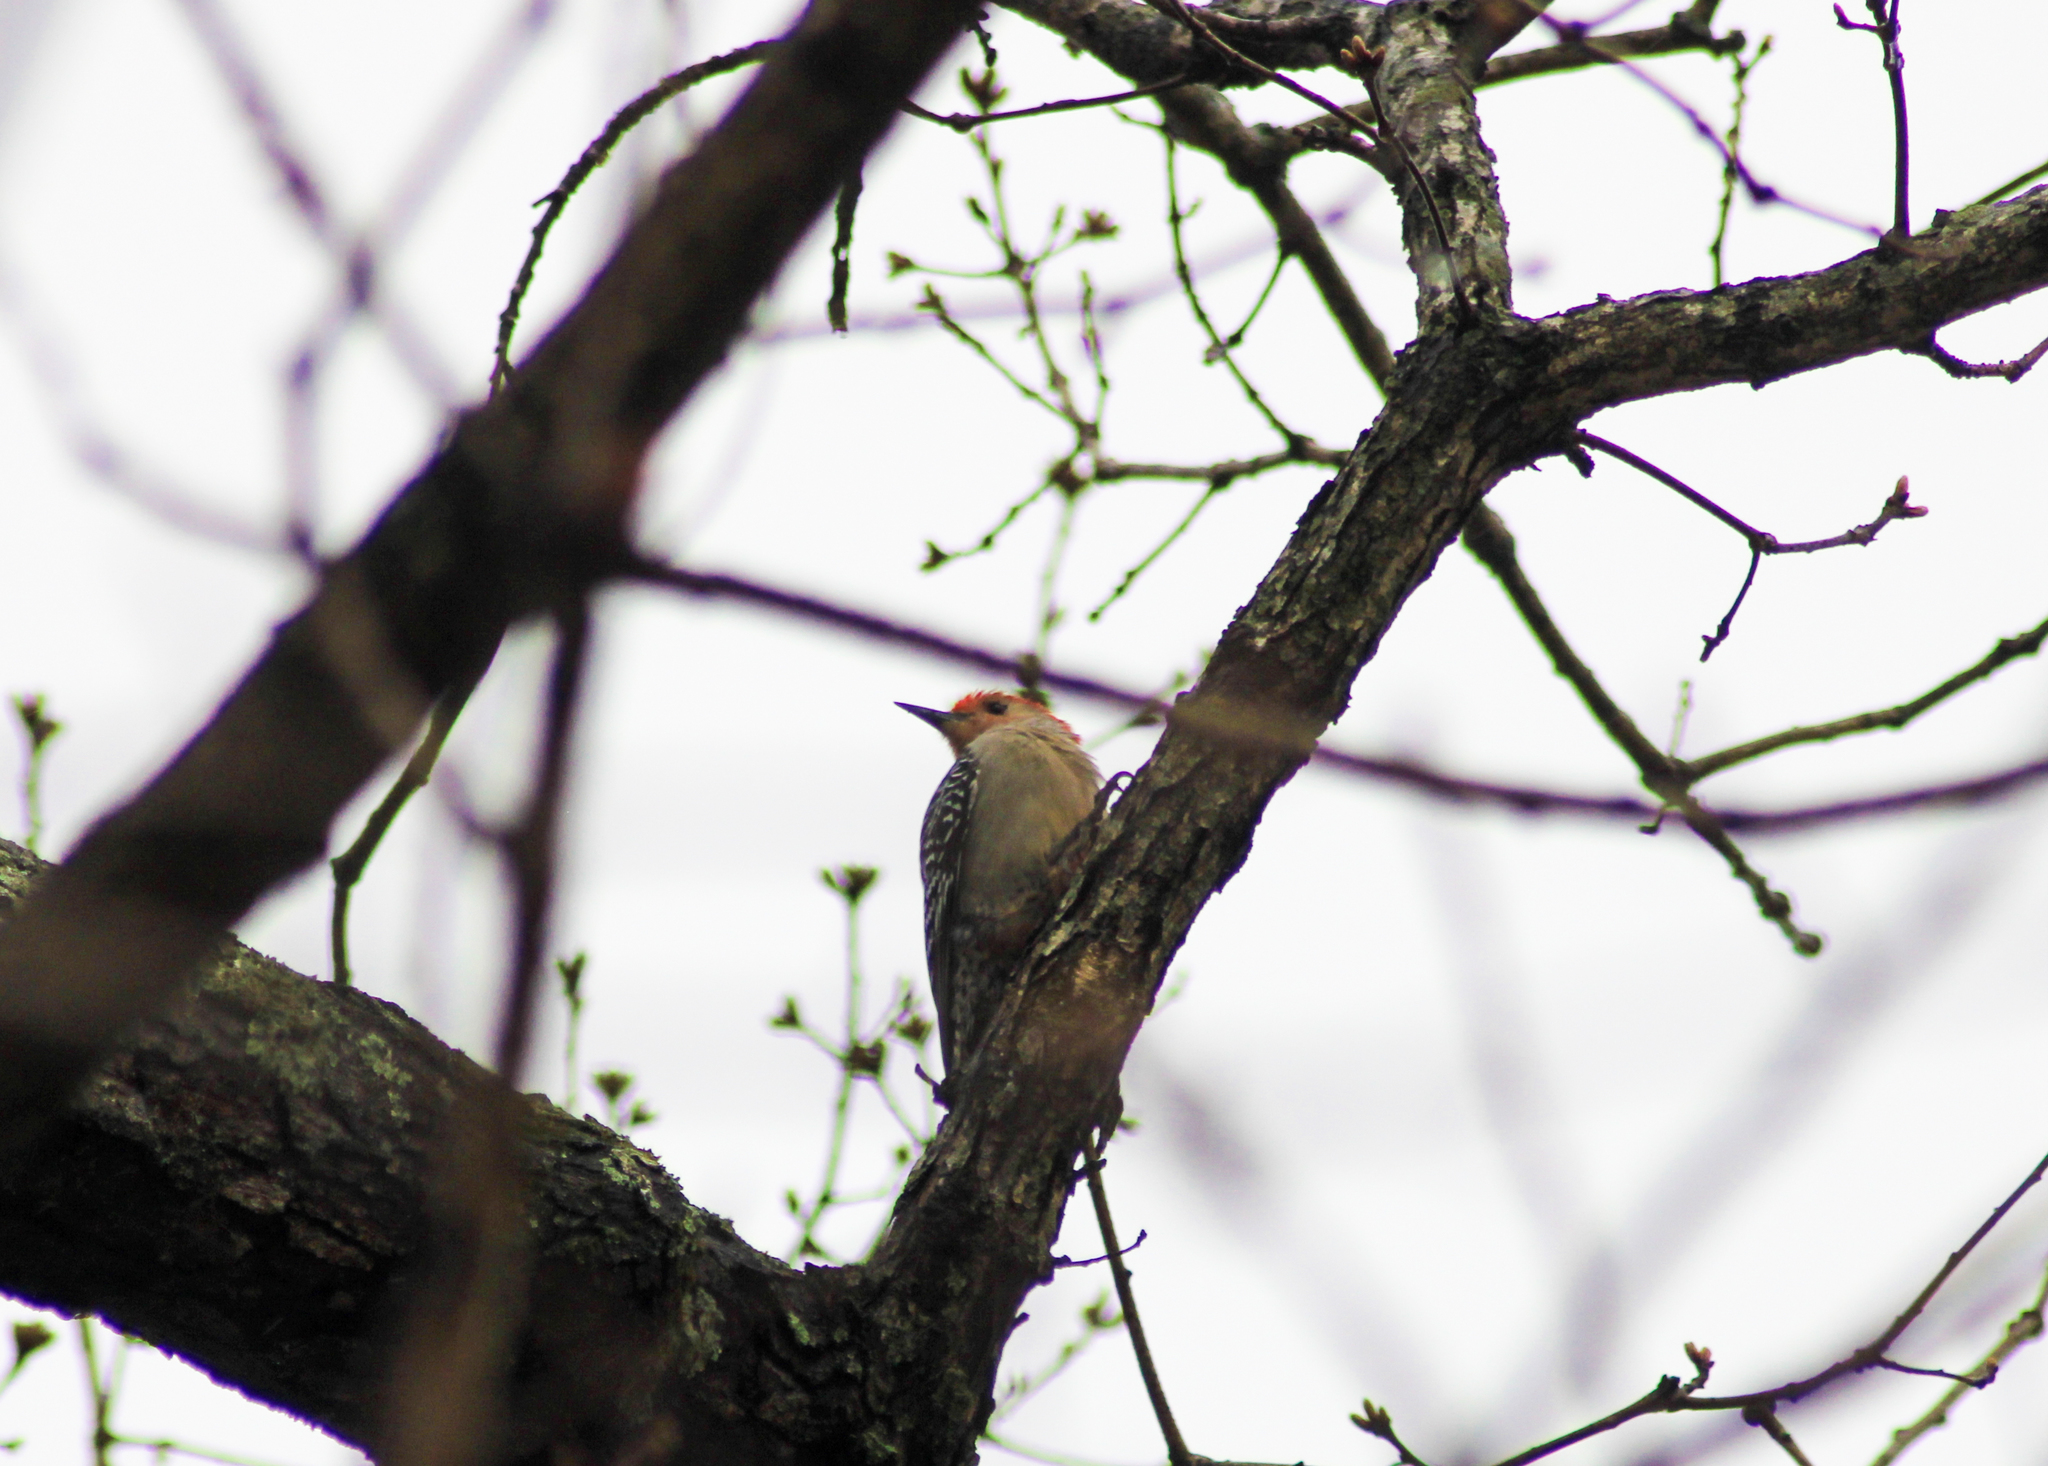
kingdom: Animalia
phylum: Chordata
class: Aves
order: Piciformes
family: Picidae
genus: Melanerpes
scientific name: Melanerpes carolinus
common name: Red-bellied woodpecker
